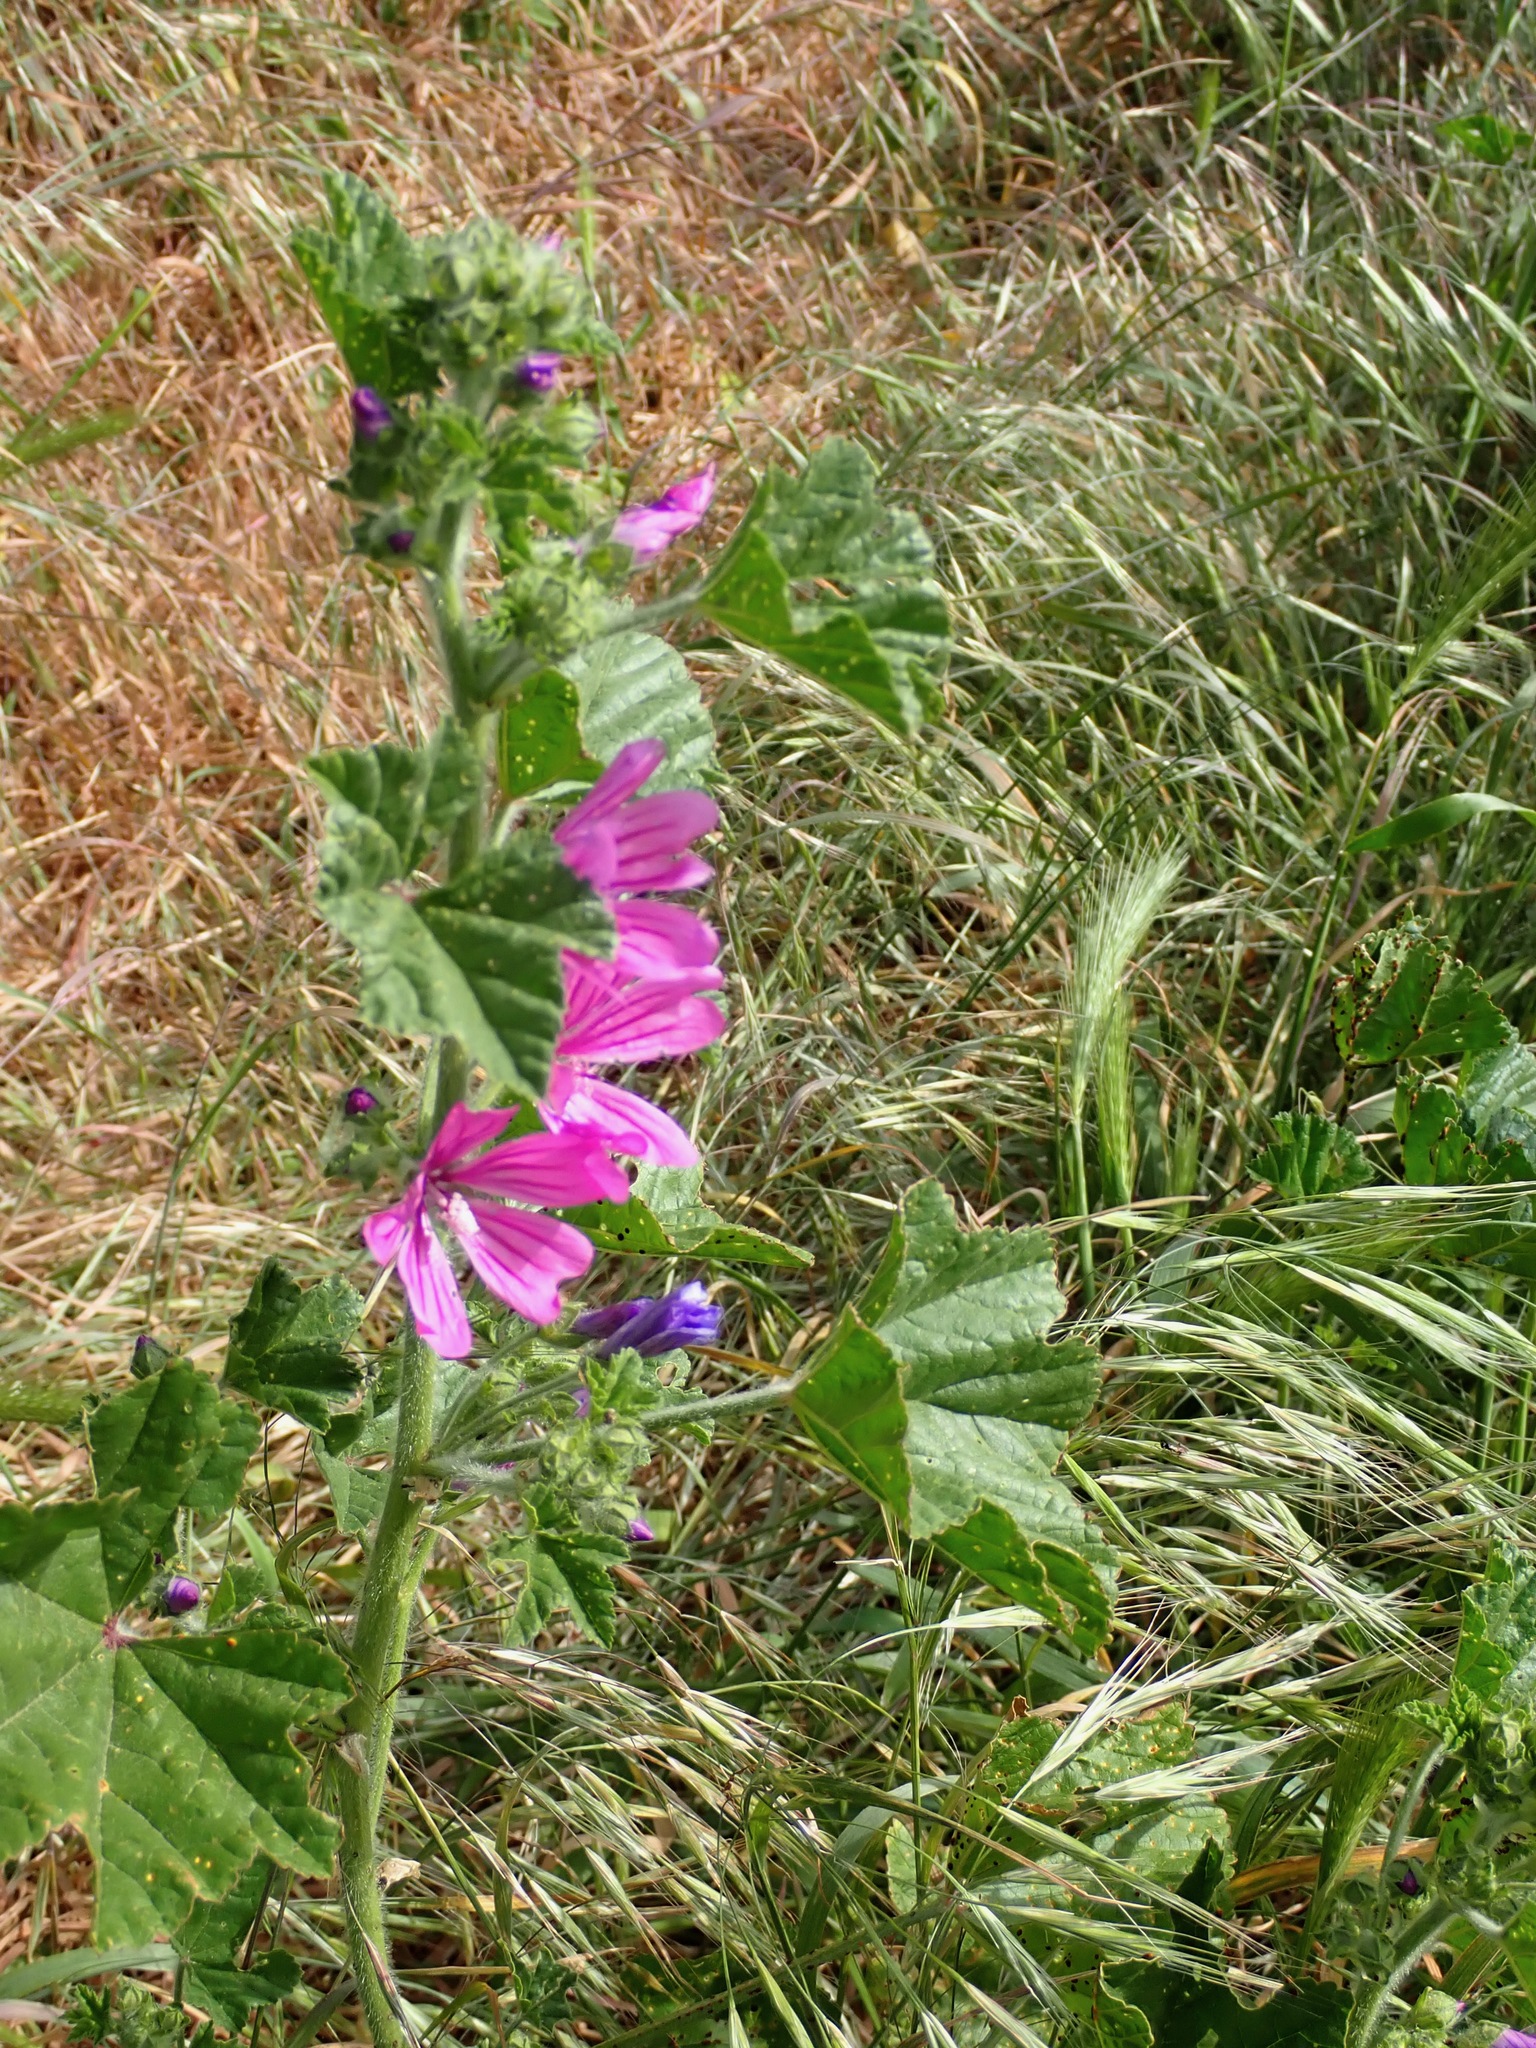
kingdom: Plantae
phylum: Tracheophyta
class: Magnoliopsida
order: Malvales
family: Malvaceae
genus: Malva
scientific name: Malva sylvestris
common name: Common mallow
